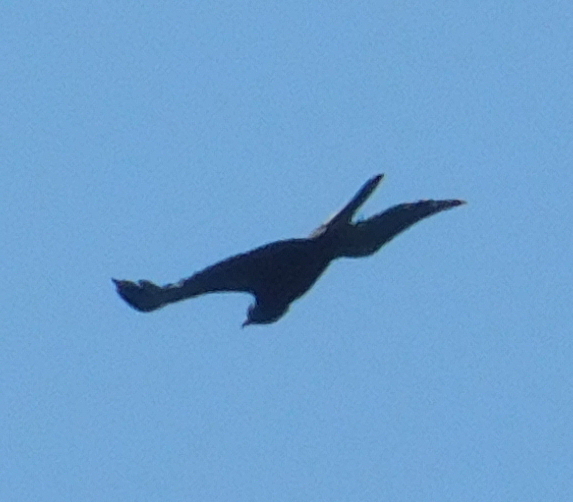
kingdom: Animalia
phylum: Chordata
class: Aves
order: Accipitriformes
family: Accipitridae
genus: Aquila
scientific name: Aquila heliaca
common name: Eastern imperial eagle
